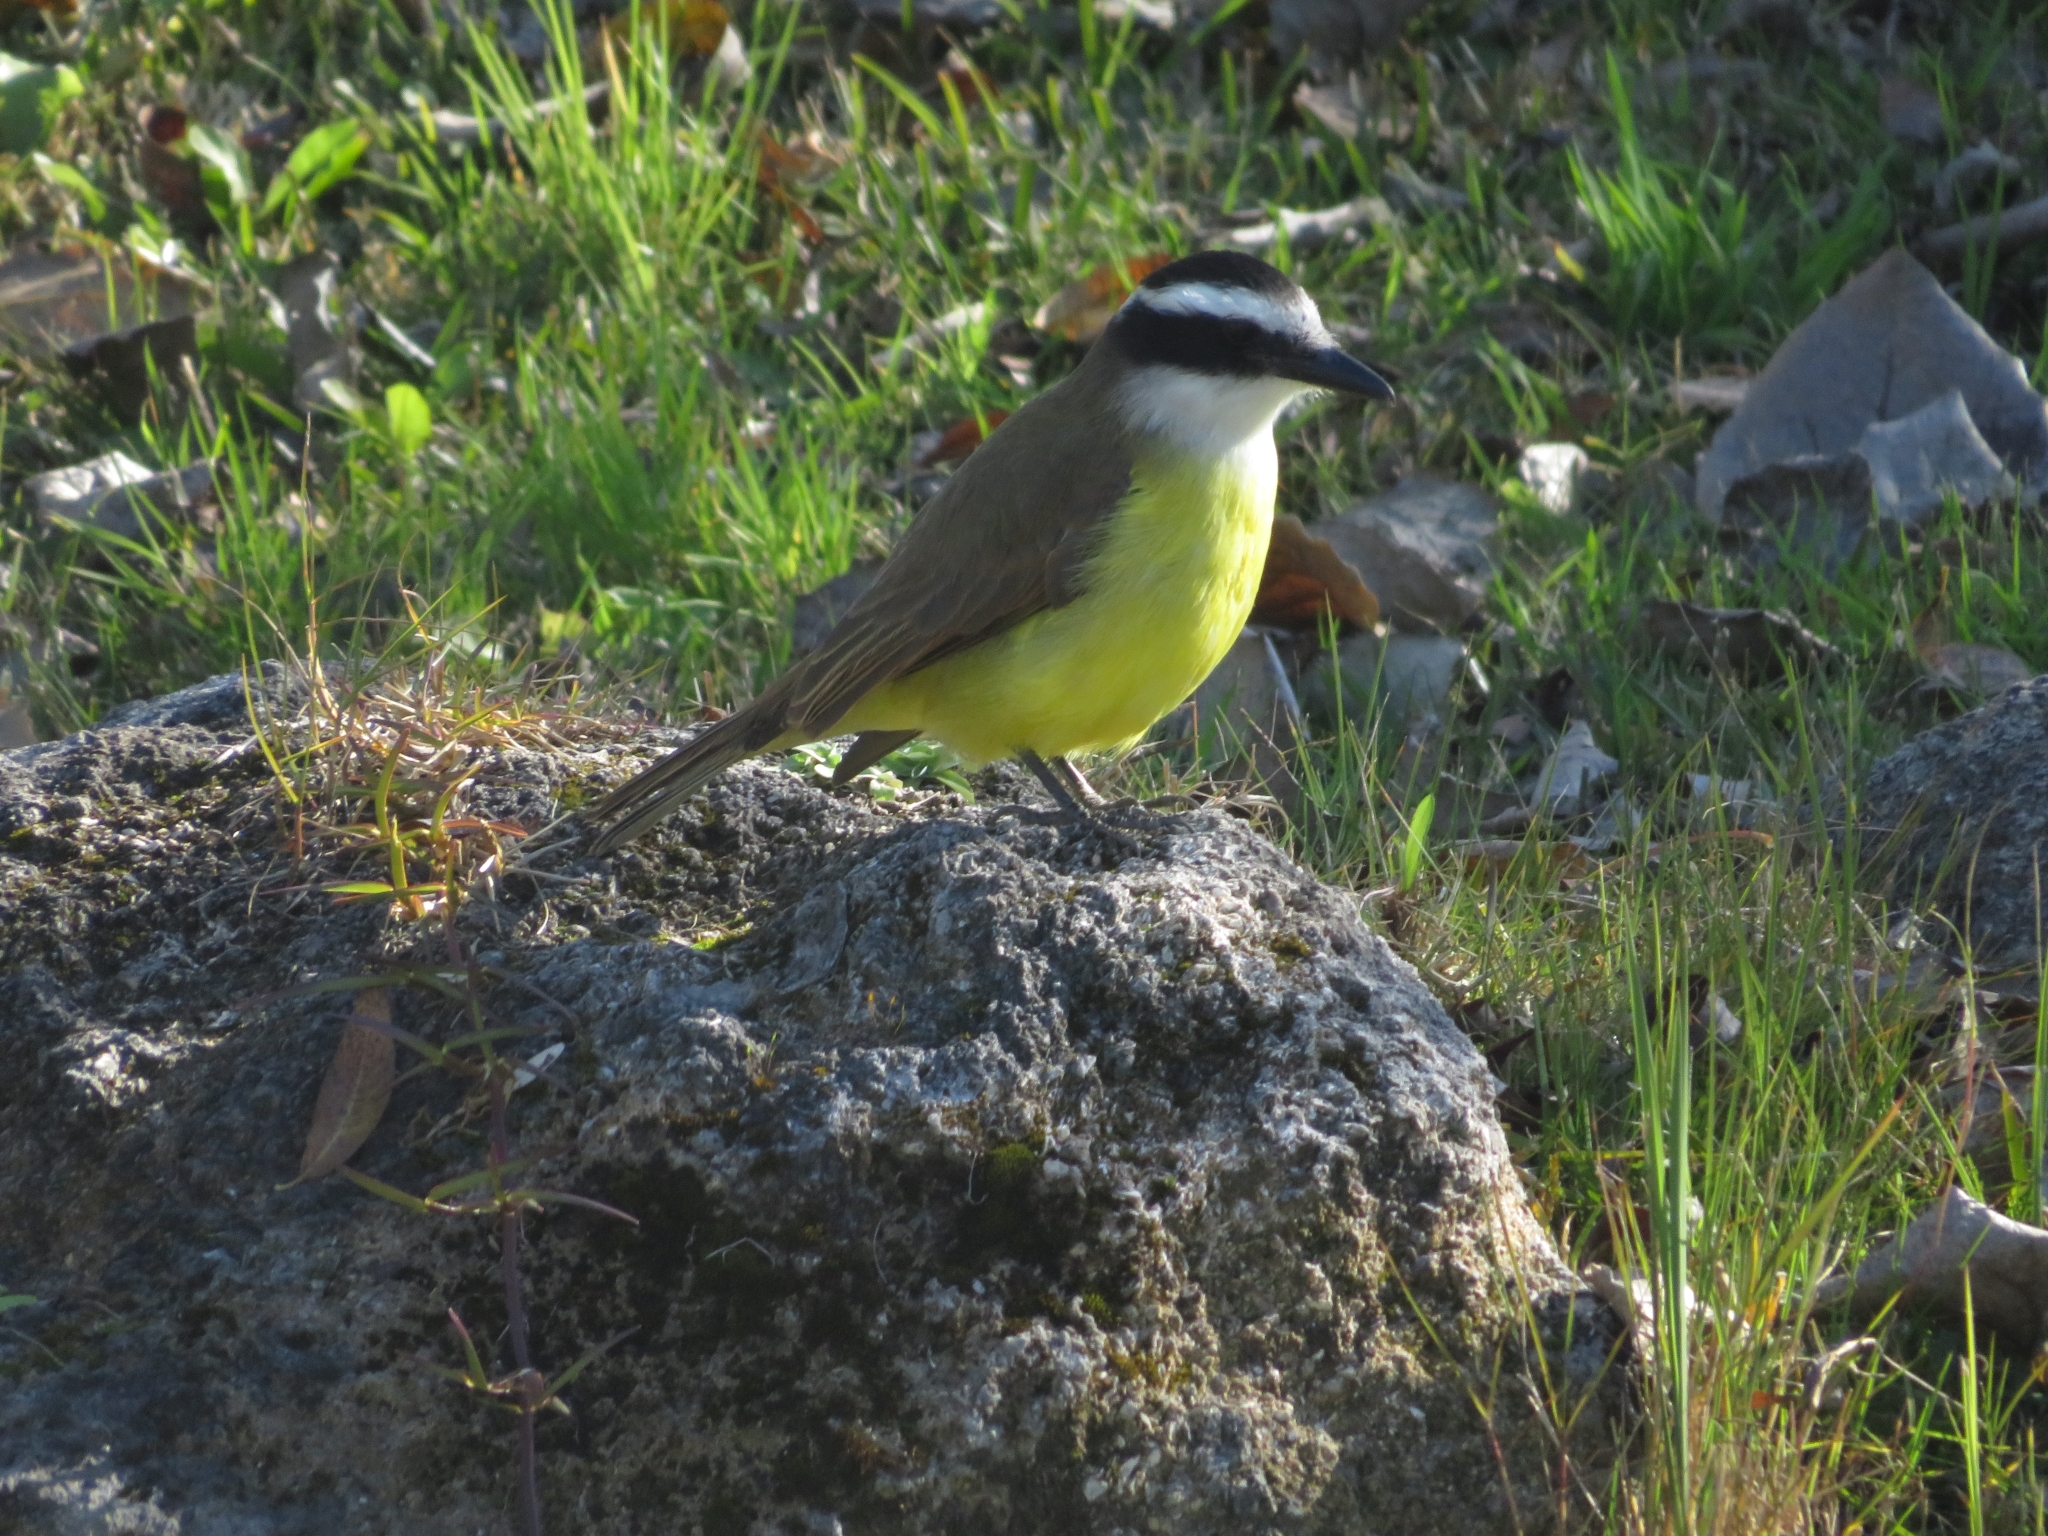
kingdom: Animalia
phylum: Chordata
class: Aves
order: Passeriformes
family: Tyrannidae
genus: Pitangus
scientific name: Pitangus sulphuratus
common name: Great kiskadee
